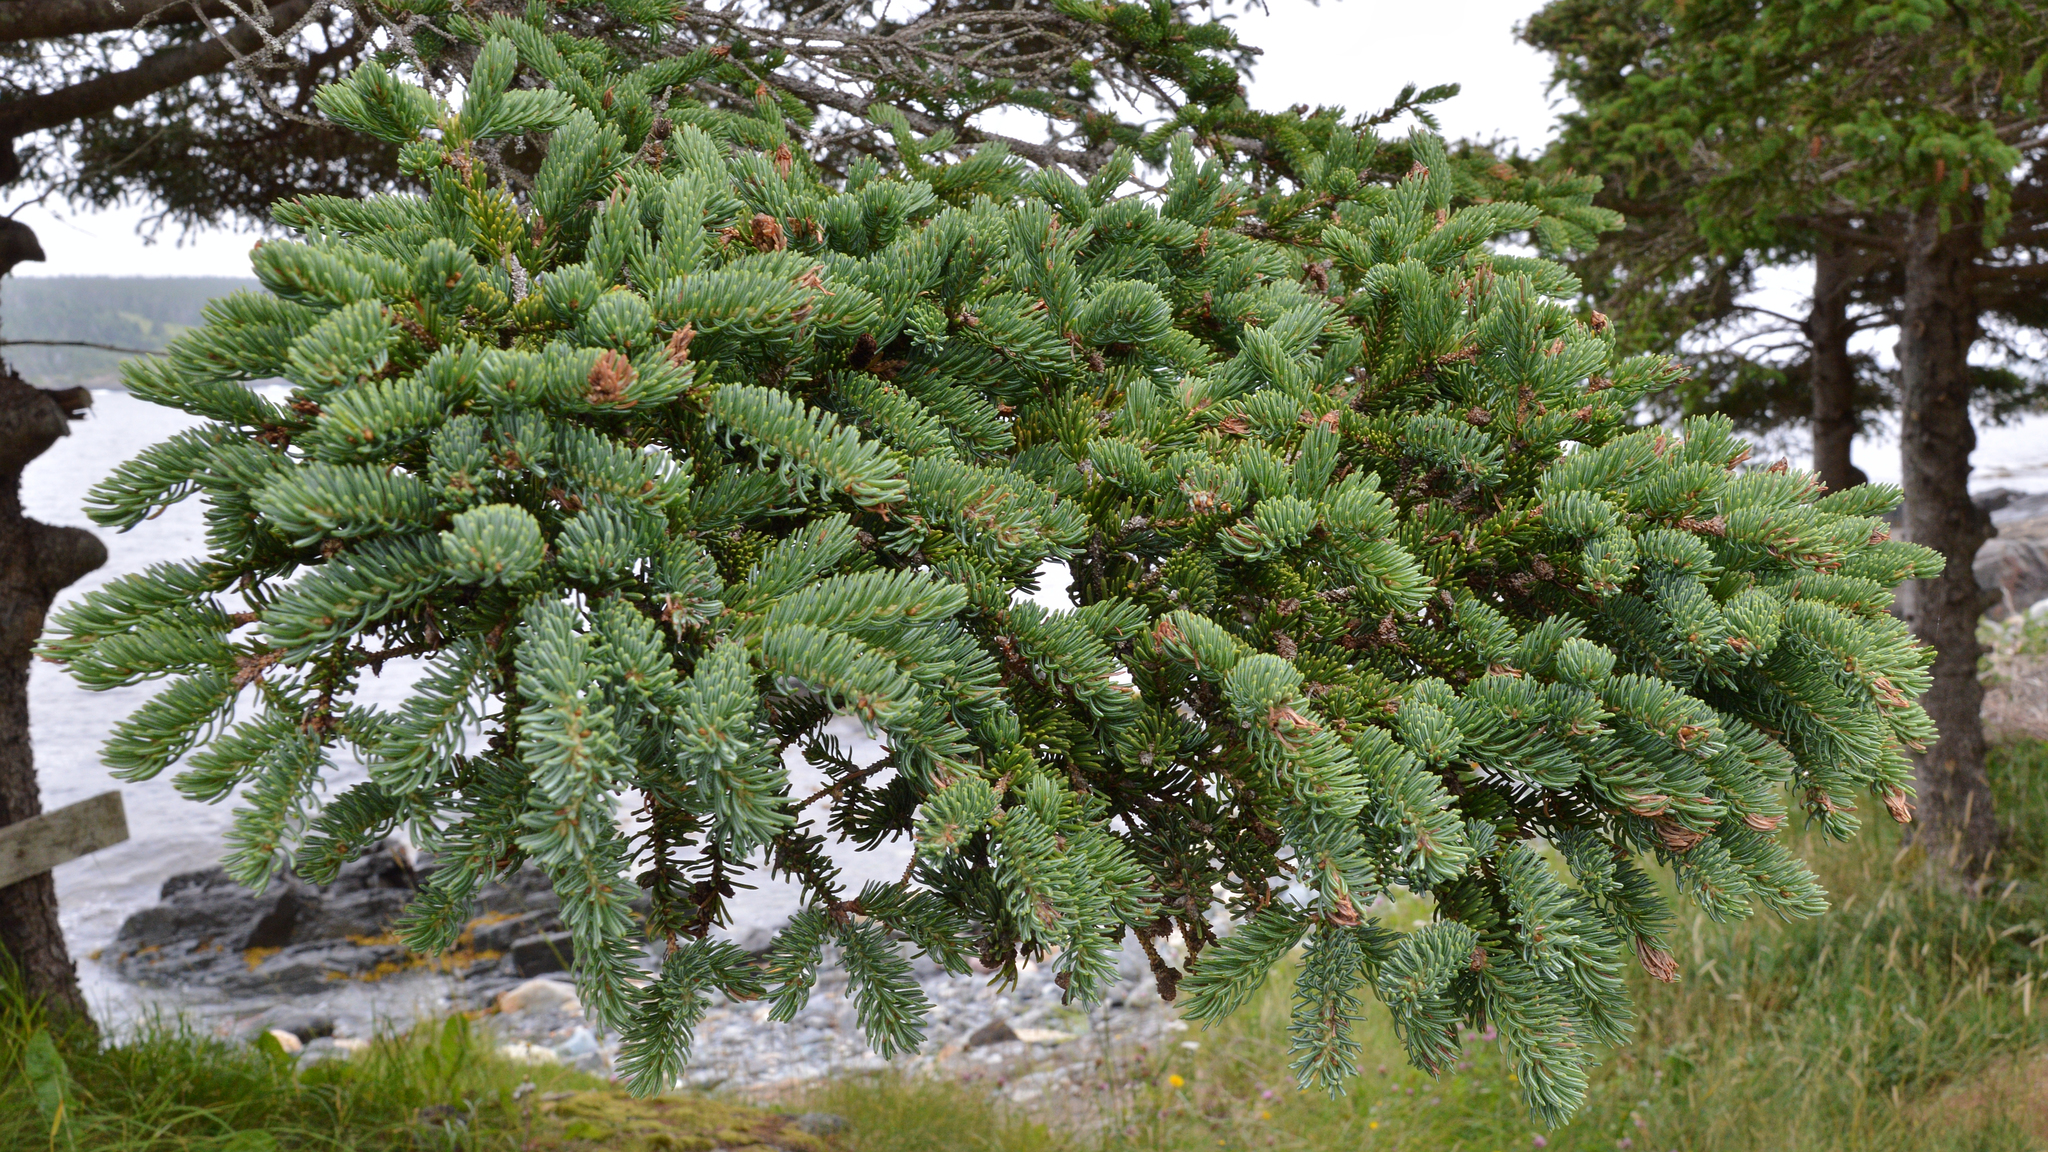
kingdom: Plantae
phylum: Tracheophyta
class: Pinopsida
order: Pinales
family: Pinaceae
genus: Picea
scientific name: Picea glauca
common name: White spruce
